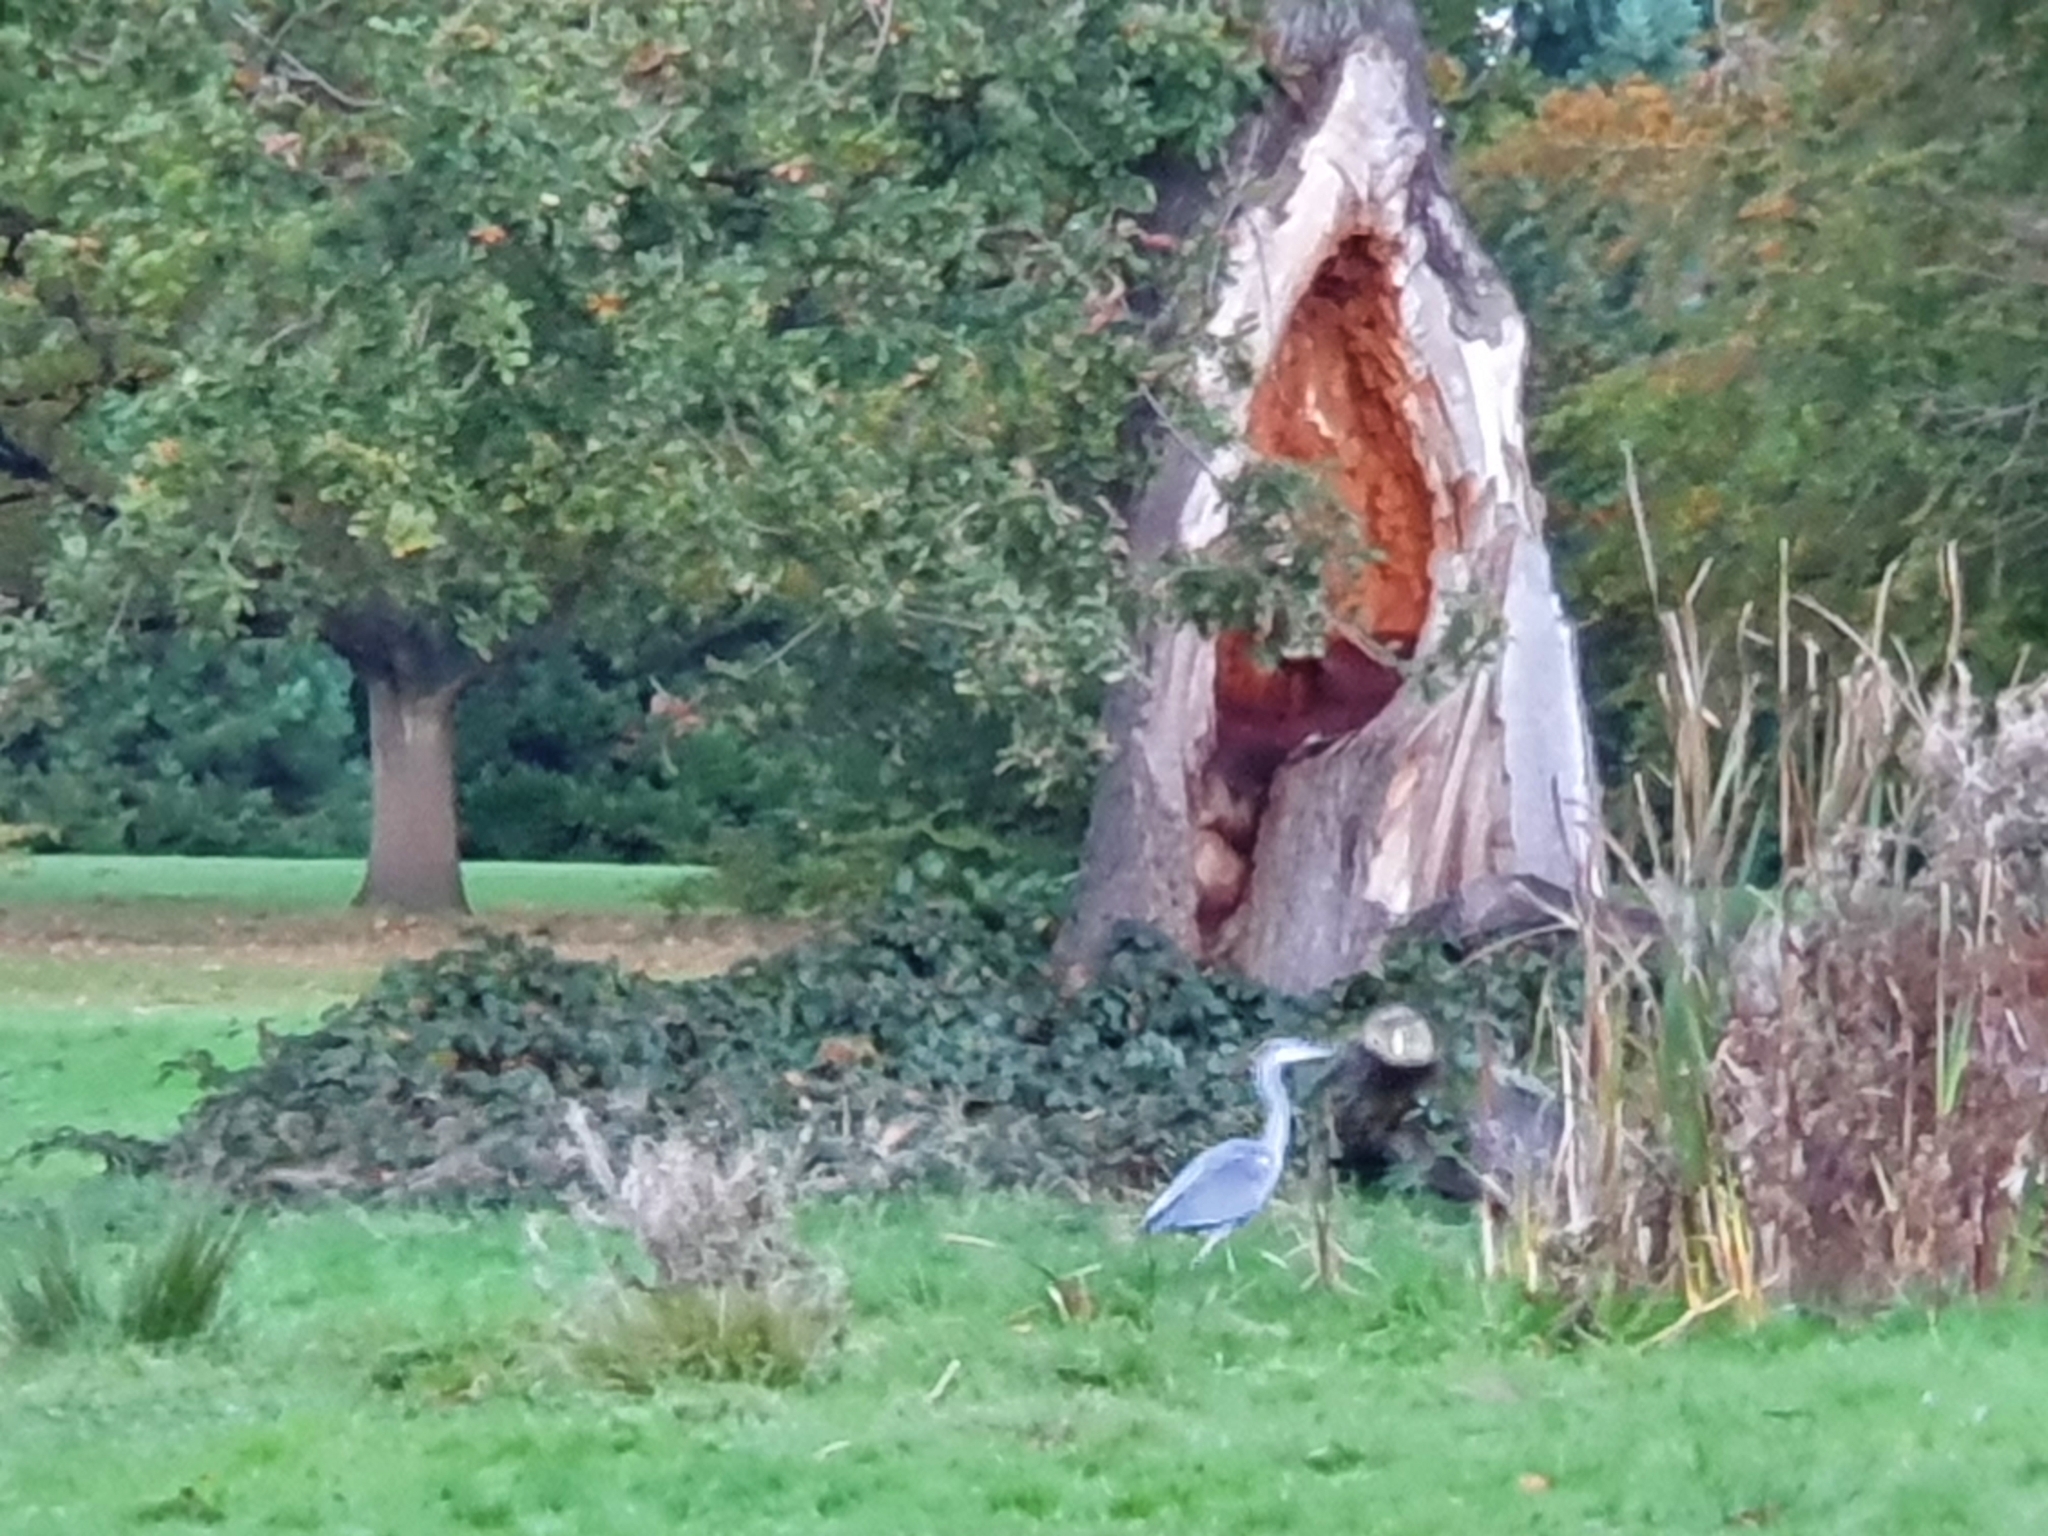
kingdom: Animalia
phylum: Chordata
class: Aves
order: Pelecaniformes
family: Ardeidae
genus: Ardea
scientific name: Ardea cinerea
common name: Grey heron
